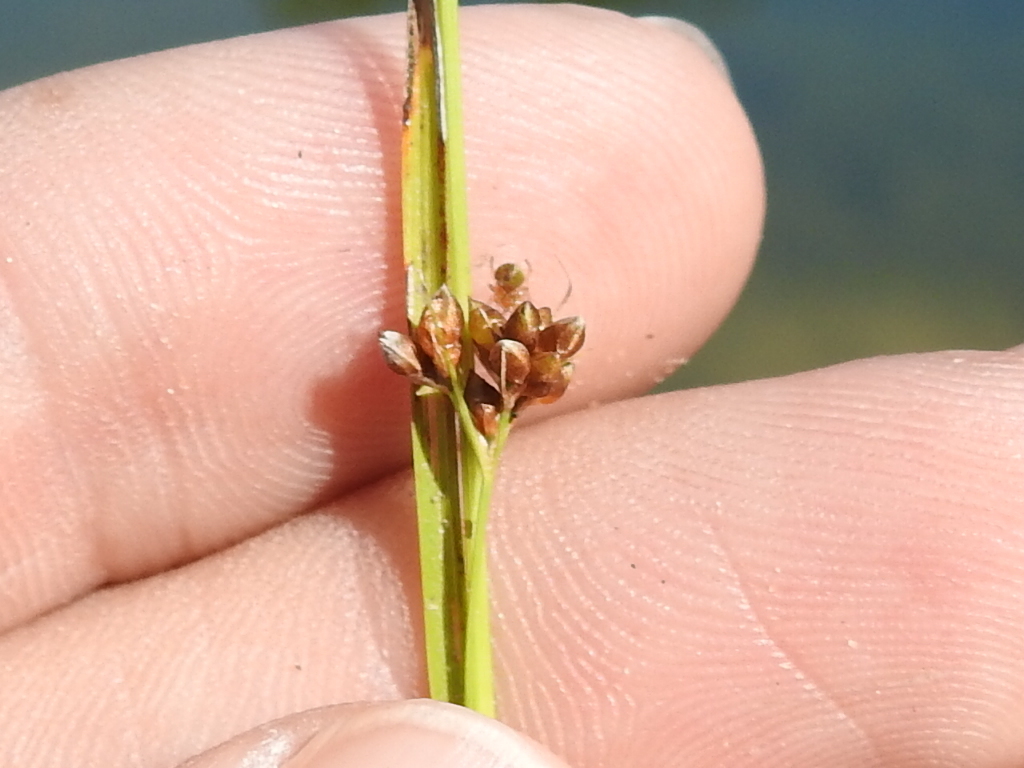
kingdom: Plantae
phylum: Tracheophyta
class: Liliopsida
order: Poales
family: Cyperaceae
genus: Rhynchospora
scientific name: Rhynchospora globularis
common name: Globe beaksedge
